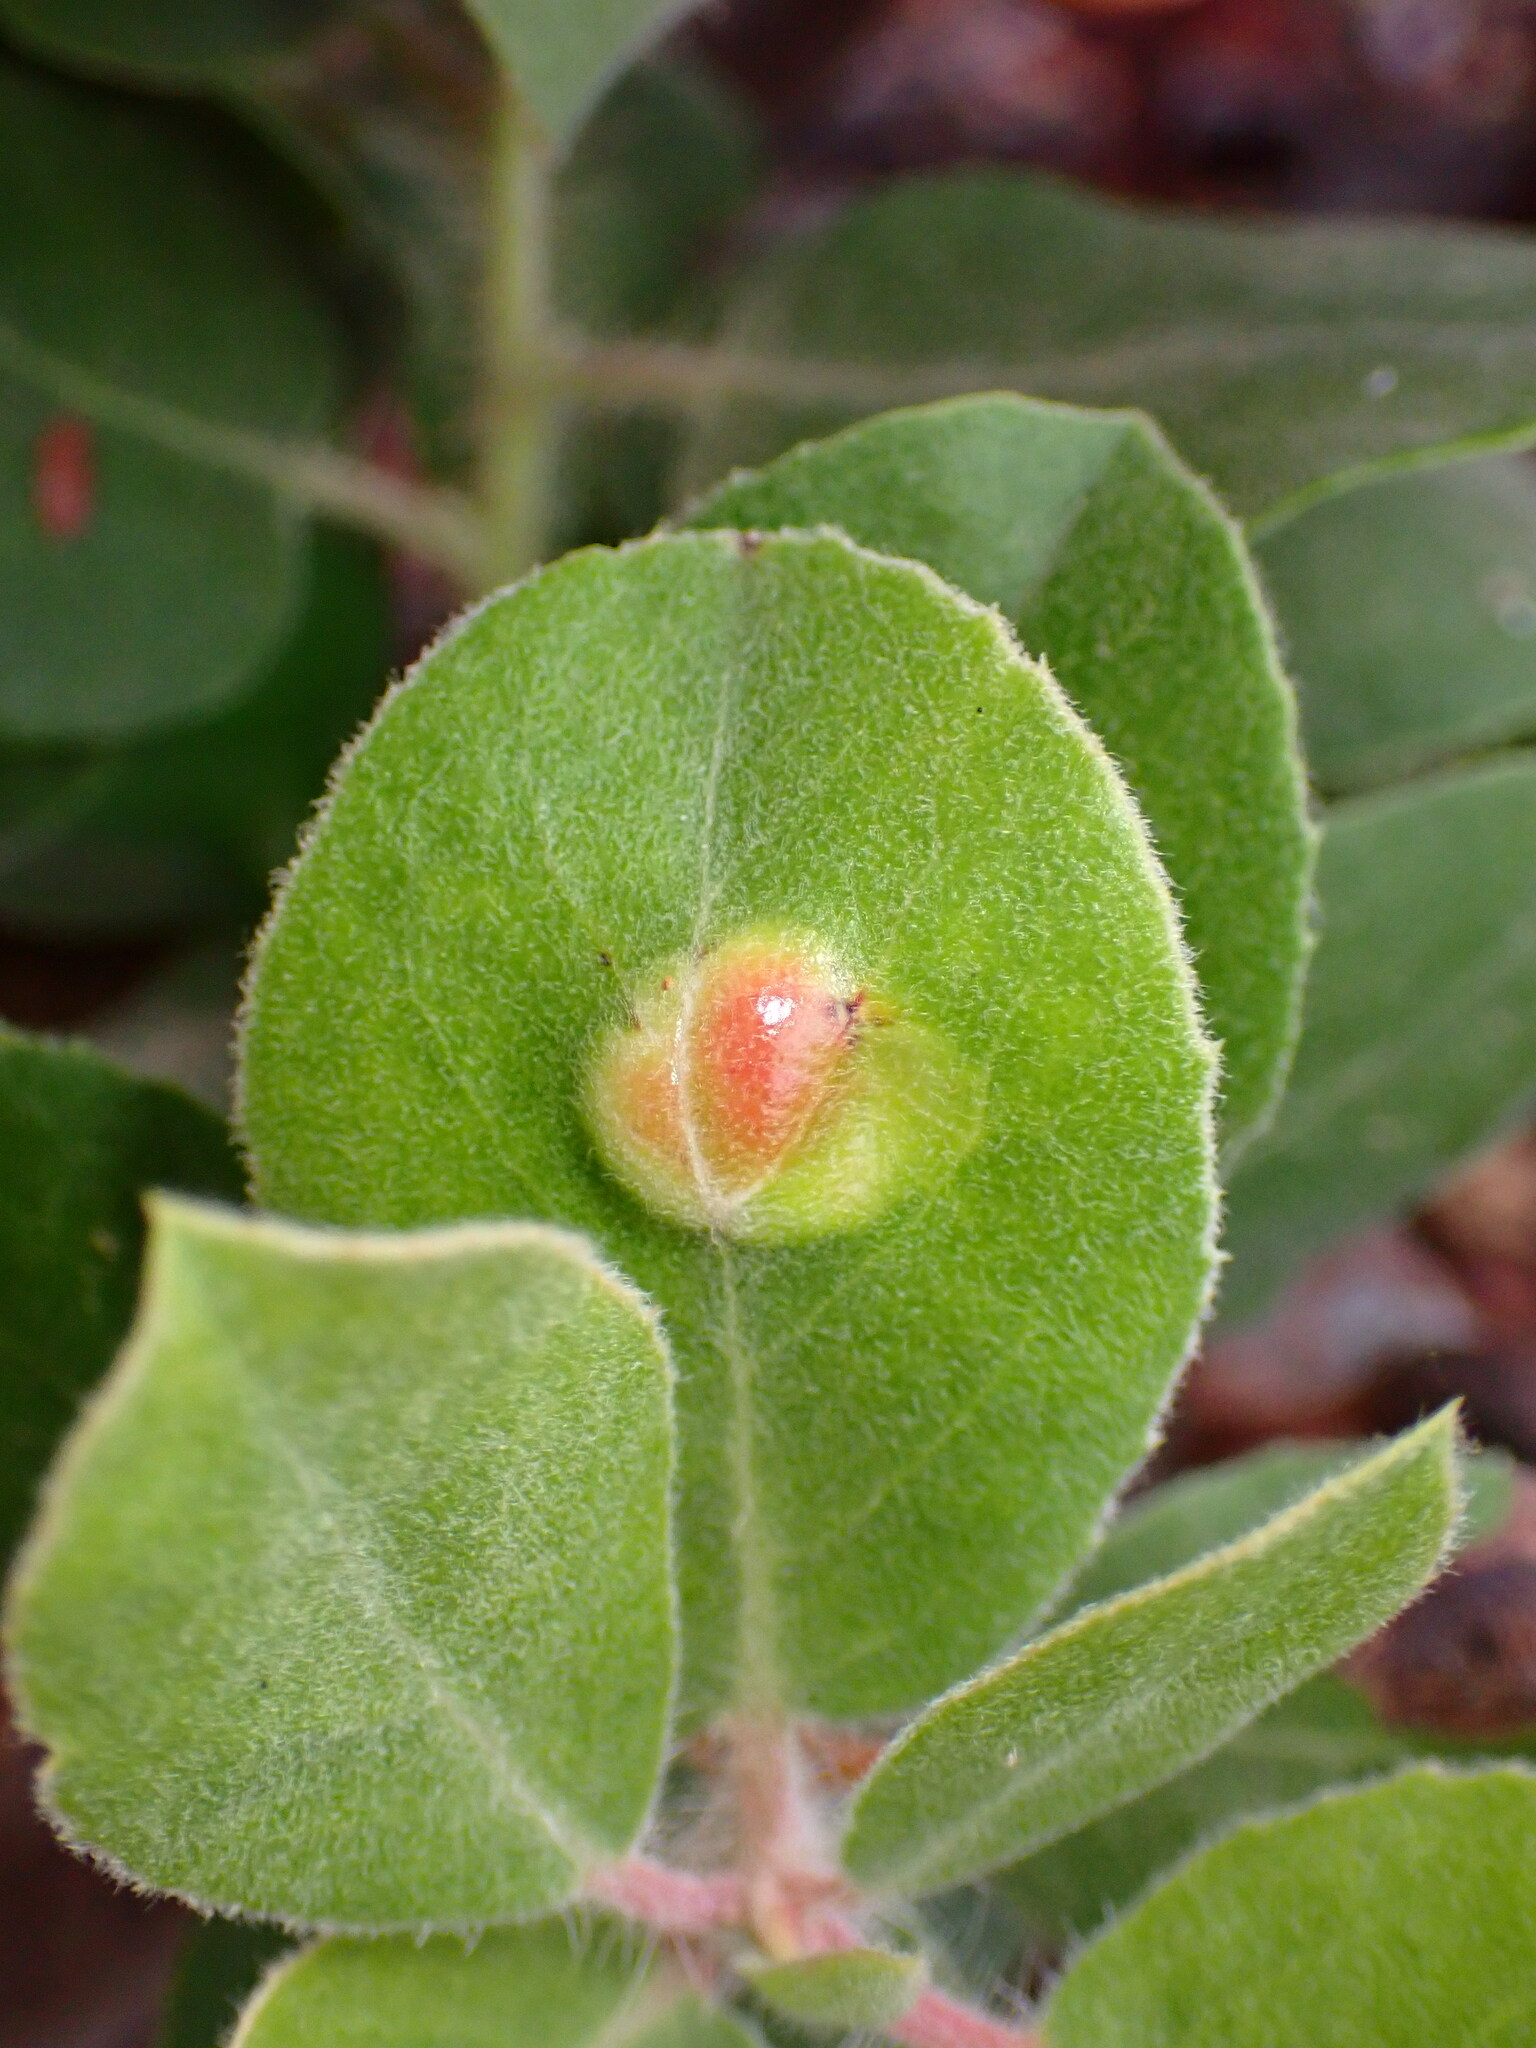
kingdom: Fungi
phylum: Basidiomycota
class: Exobasidiomycetes
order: Exobasidiales
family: Exobasidiaceae
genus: Exobasidium
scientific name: Exobasidium arctostaphyli
